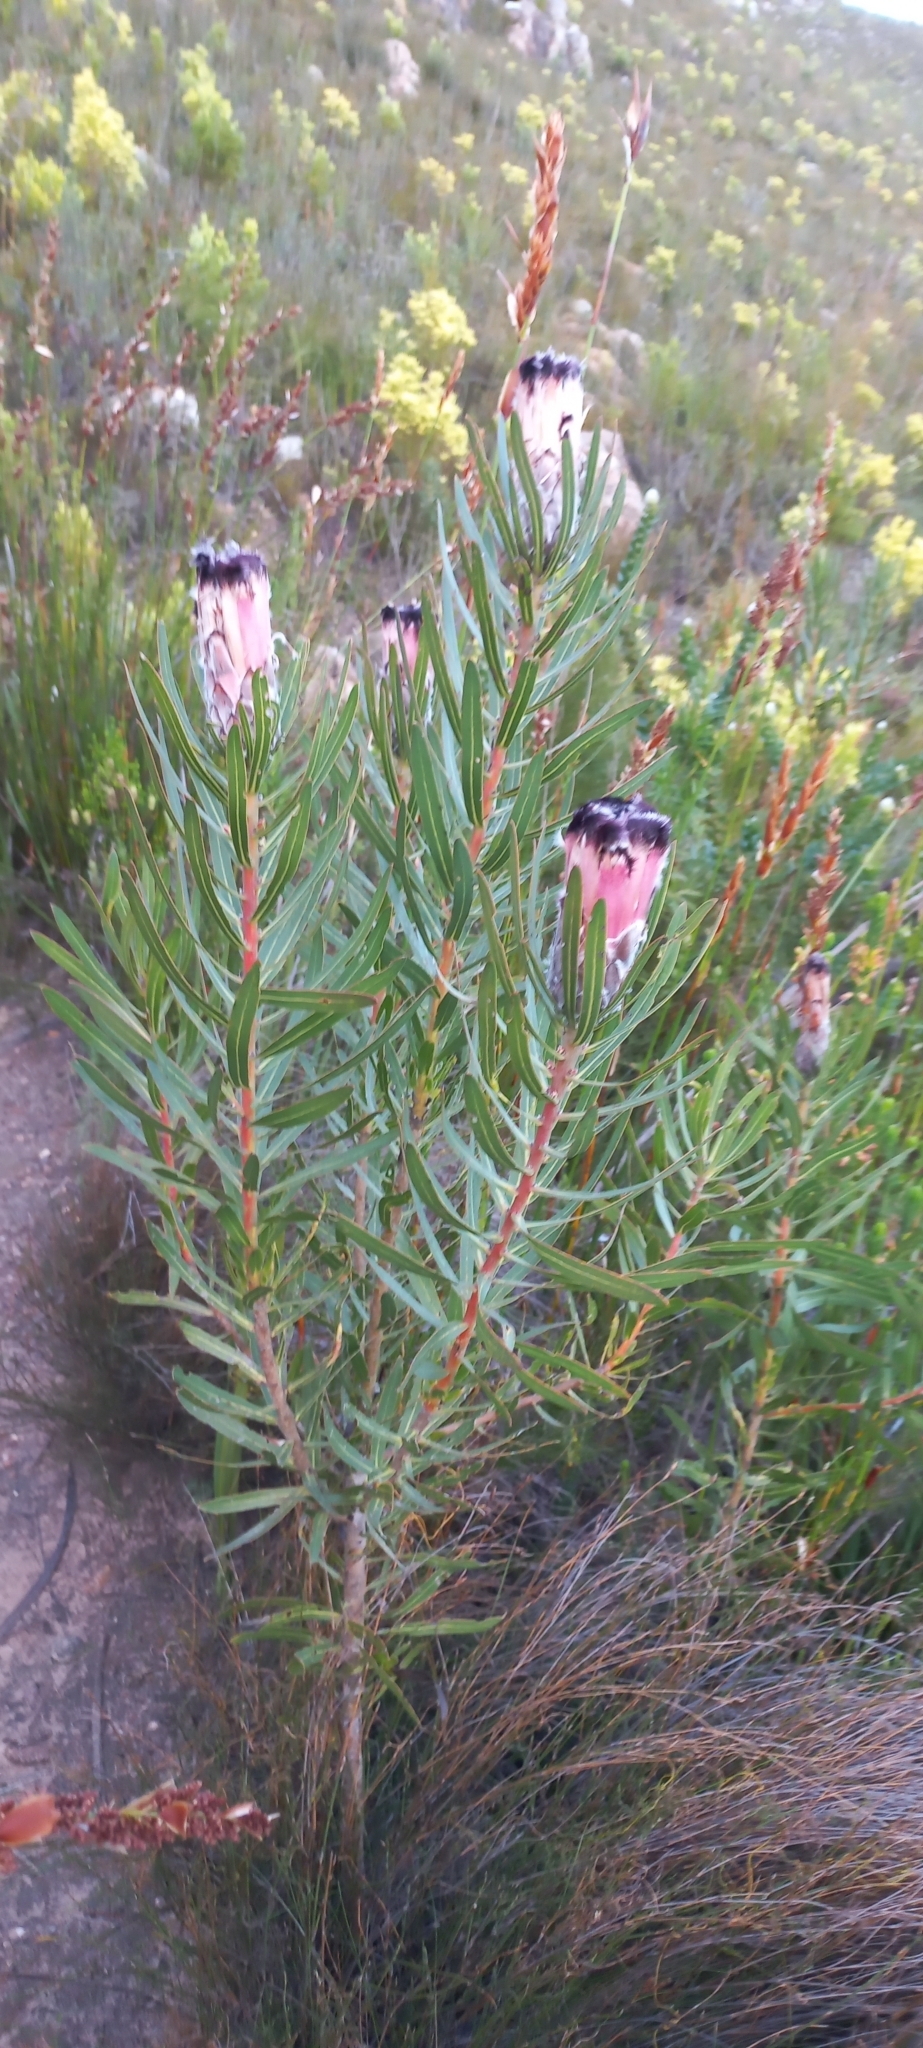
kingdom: Plantae
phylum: Tracheophyta
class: Magnoliopsida
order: Proteales
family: Proteaceae
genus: Protea
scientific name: Protea lepidocarpodendron
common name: Black-bearded protea
